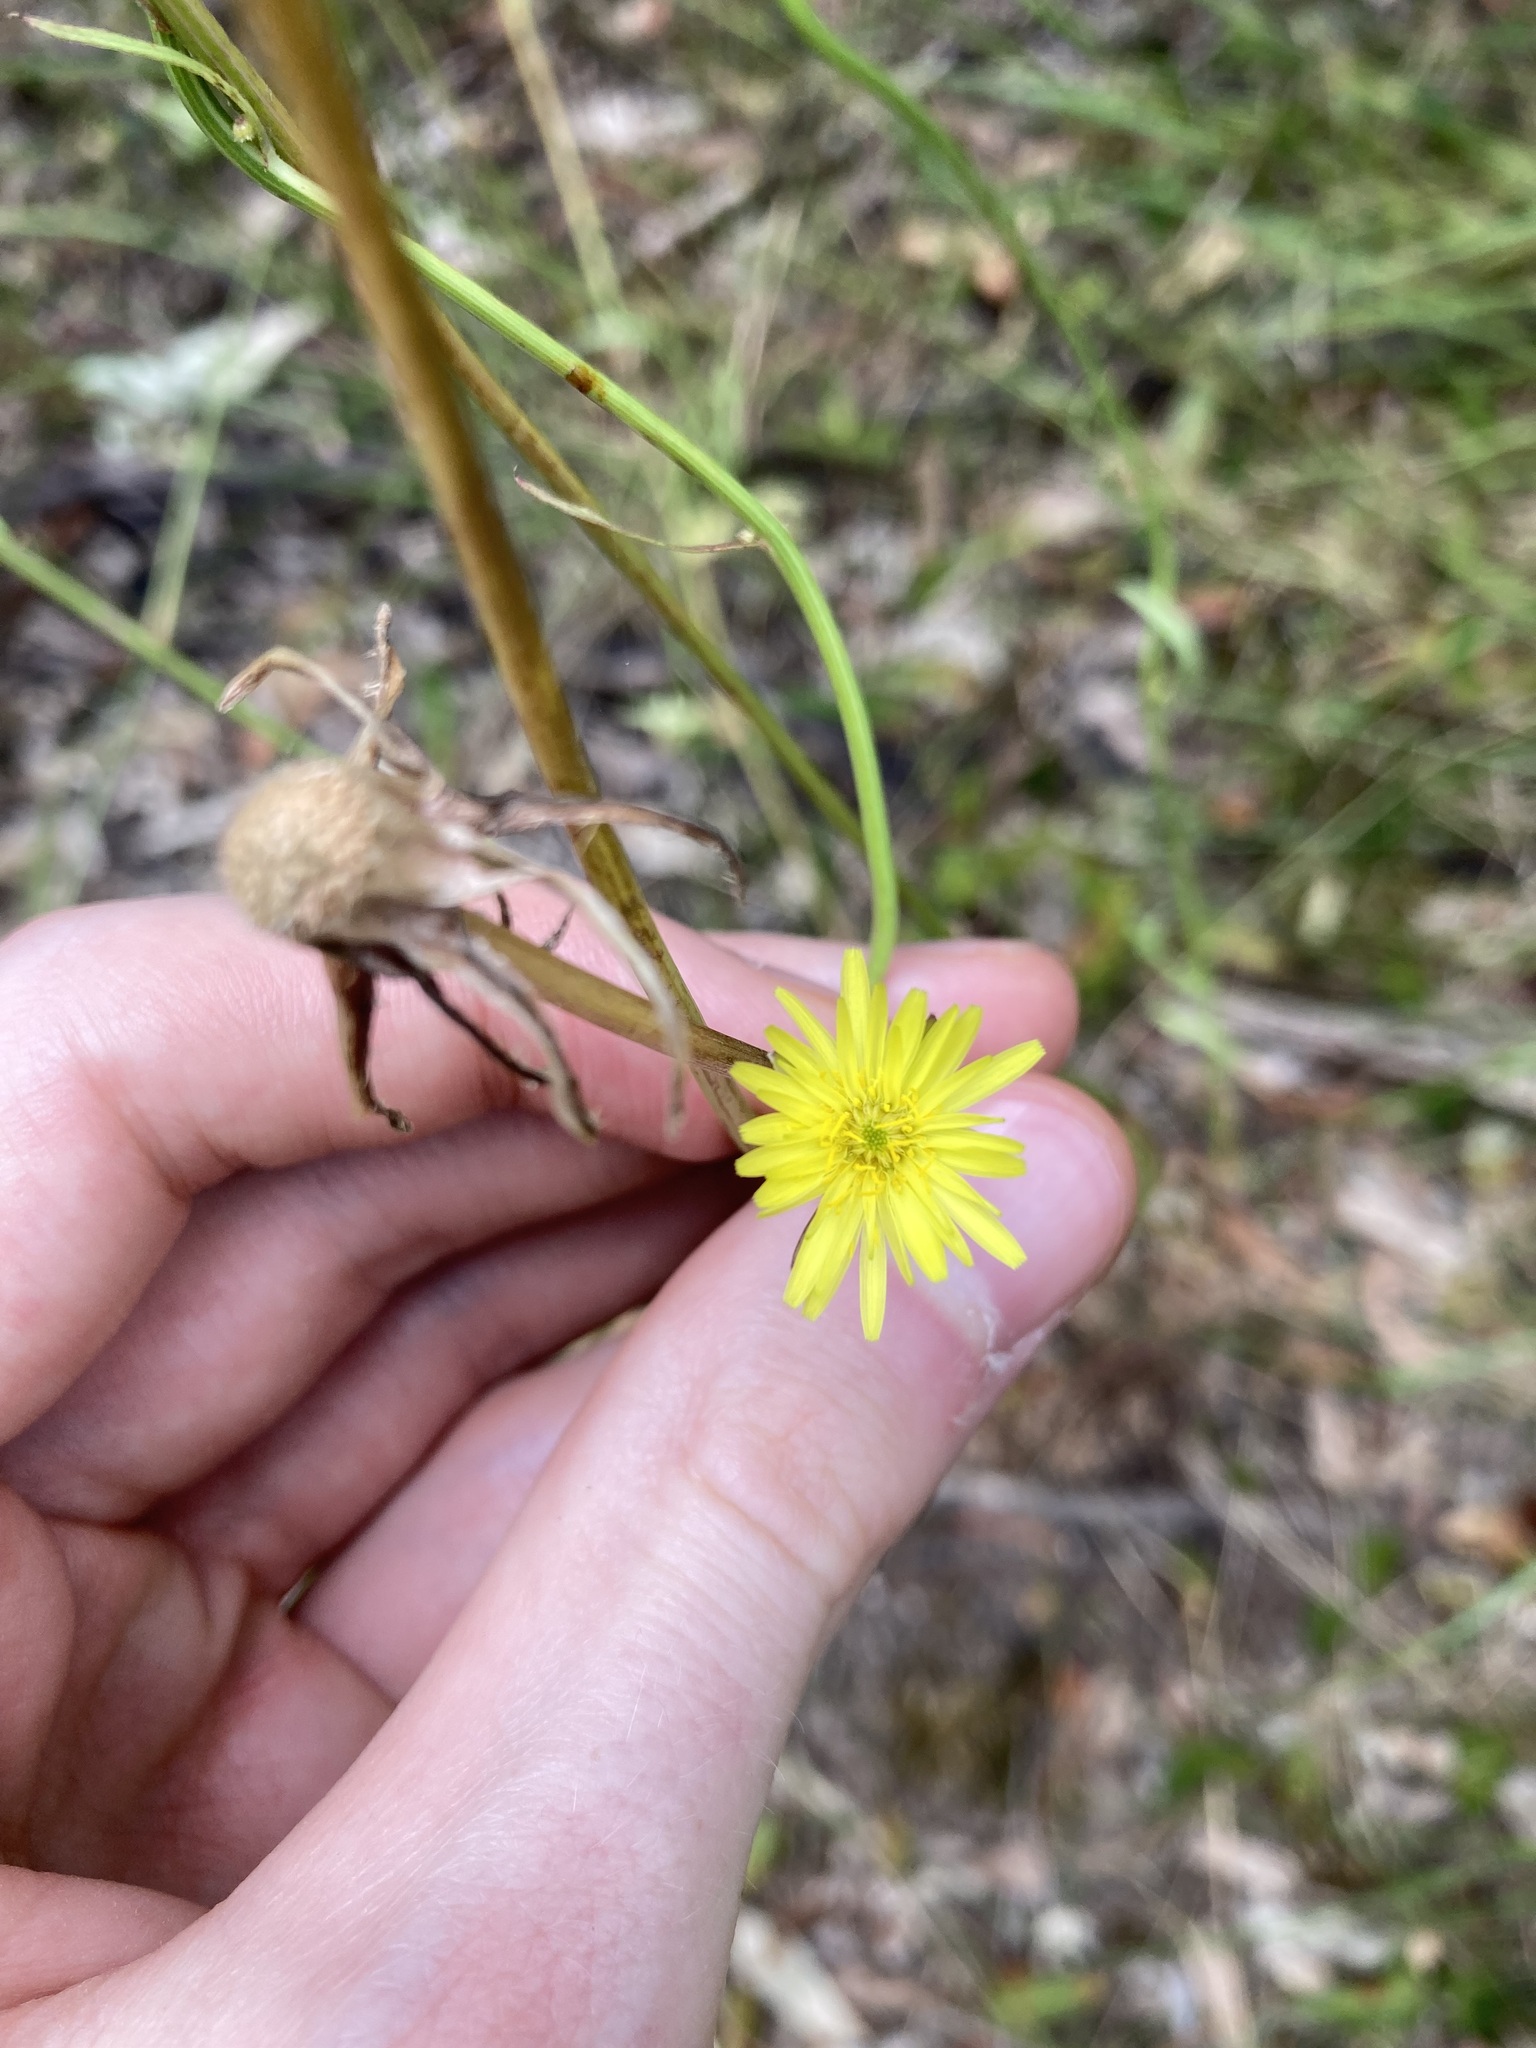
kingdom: Plantae
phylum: Tracheophyta
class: Magnoliopsida
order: Asterales
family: Asteraceae
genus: Urospermum
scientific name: Urospermum picroides
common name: False hawkbit
